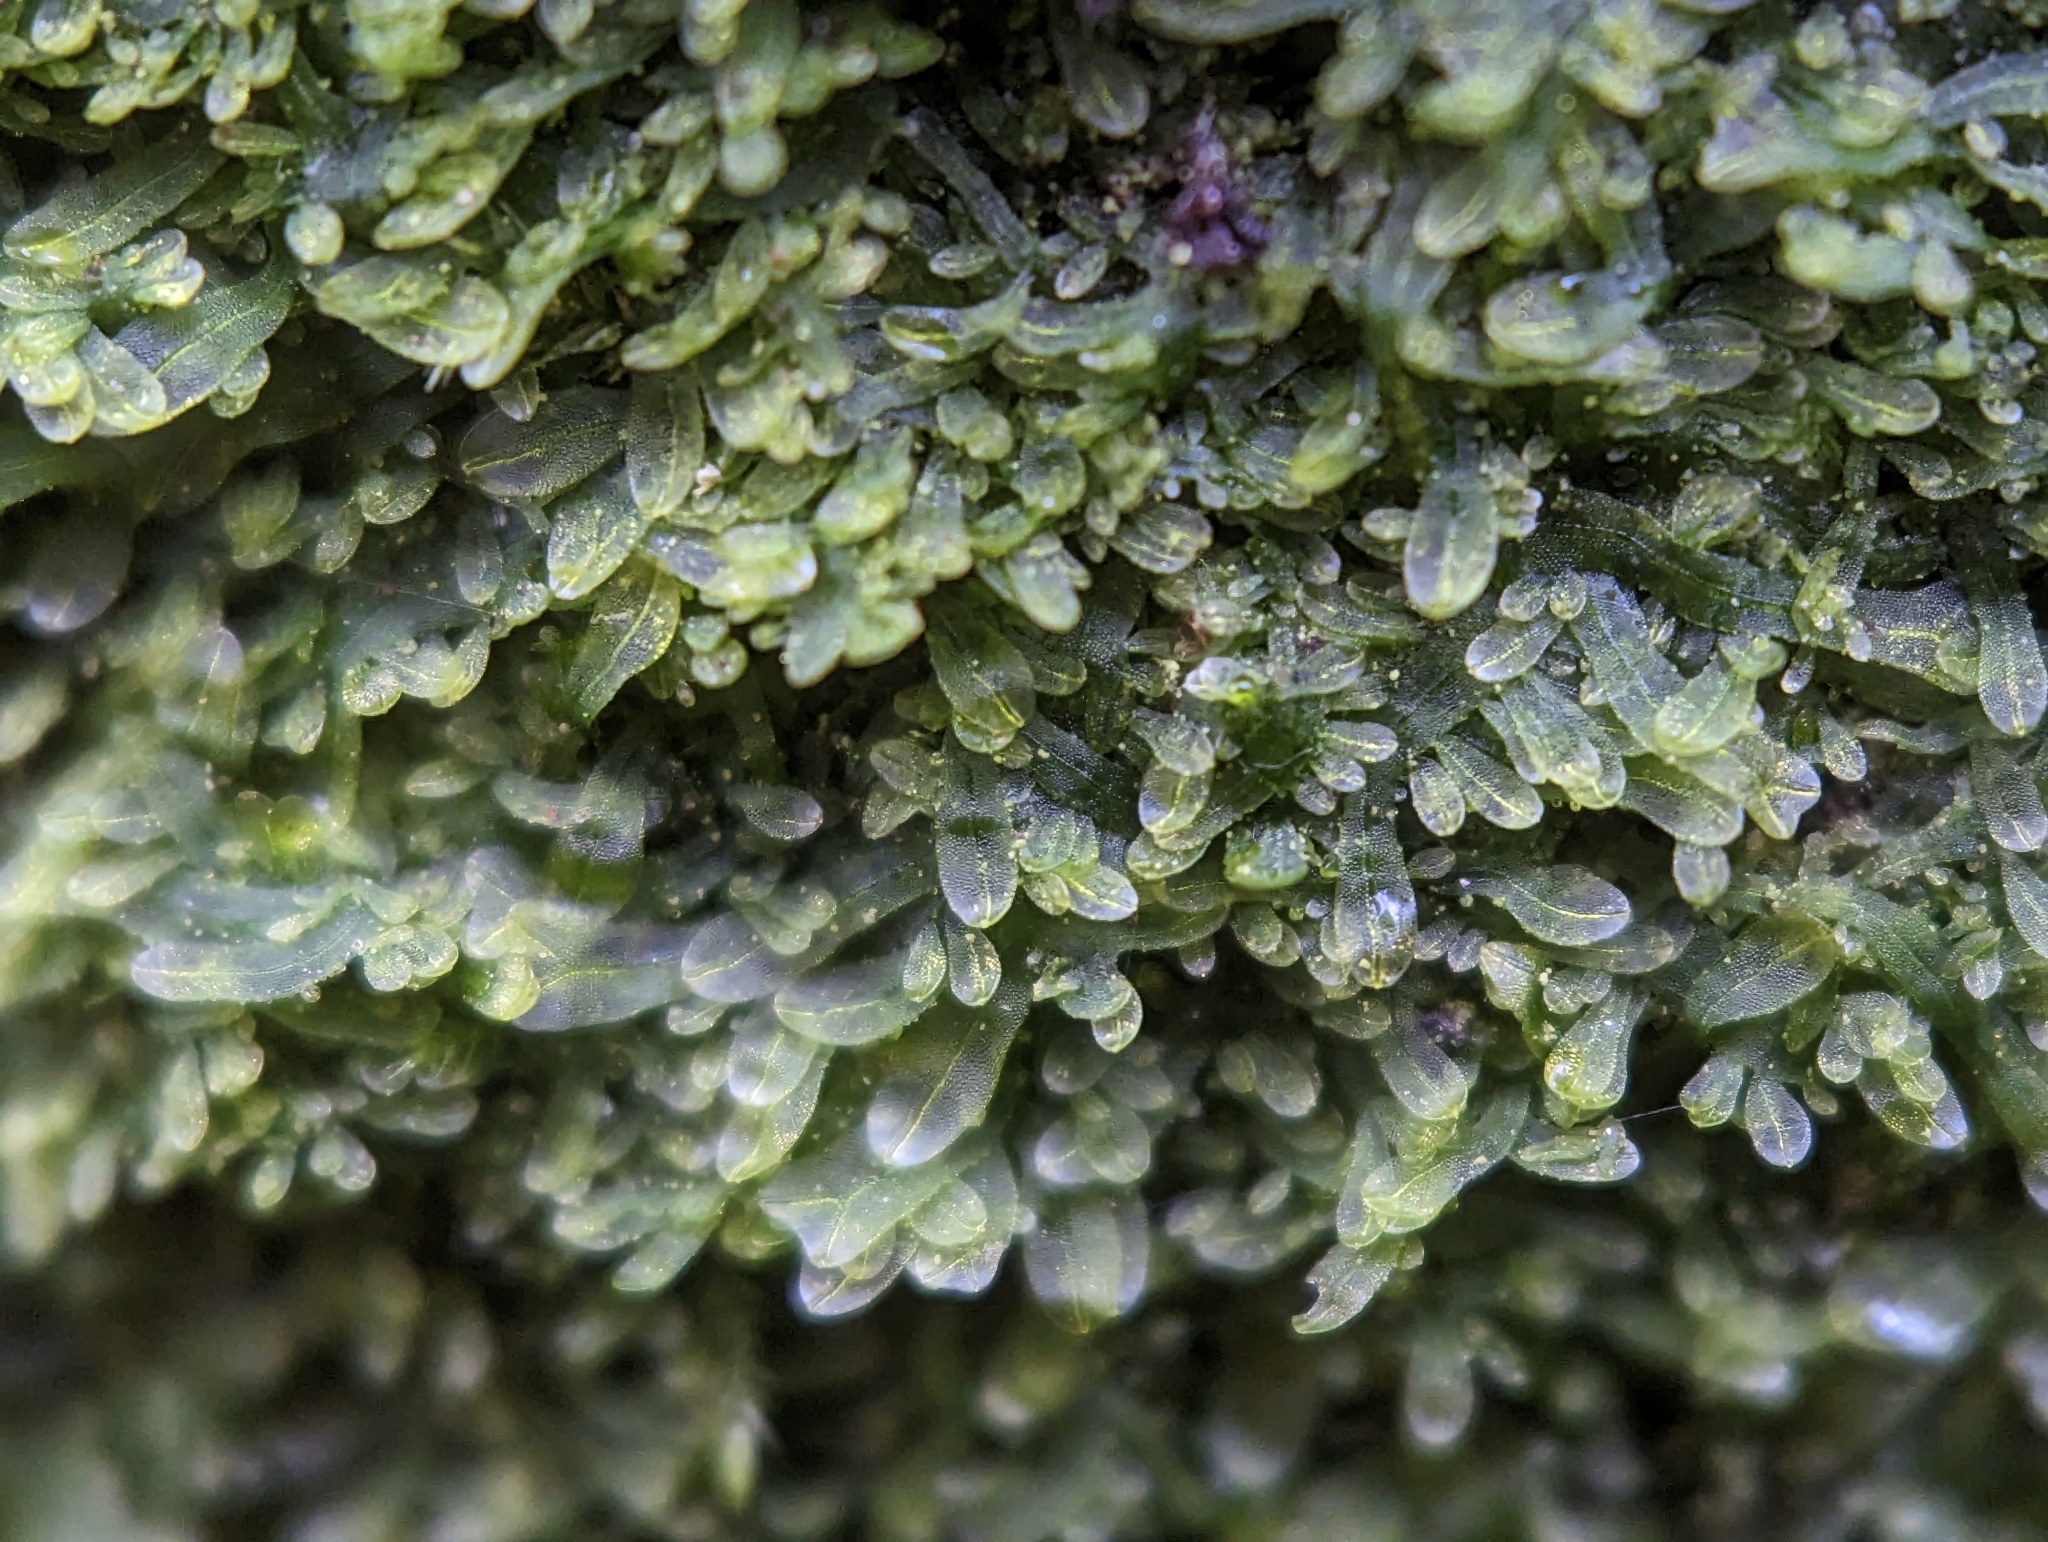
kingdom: Plantae
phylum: Marchantiophyta
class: Jungermanniopsida
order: Metzgeriales
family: Metzgeriaceae
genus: Metzgeria
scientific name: Metzgeria furcata
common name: Forked veilwort
